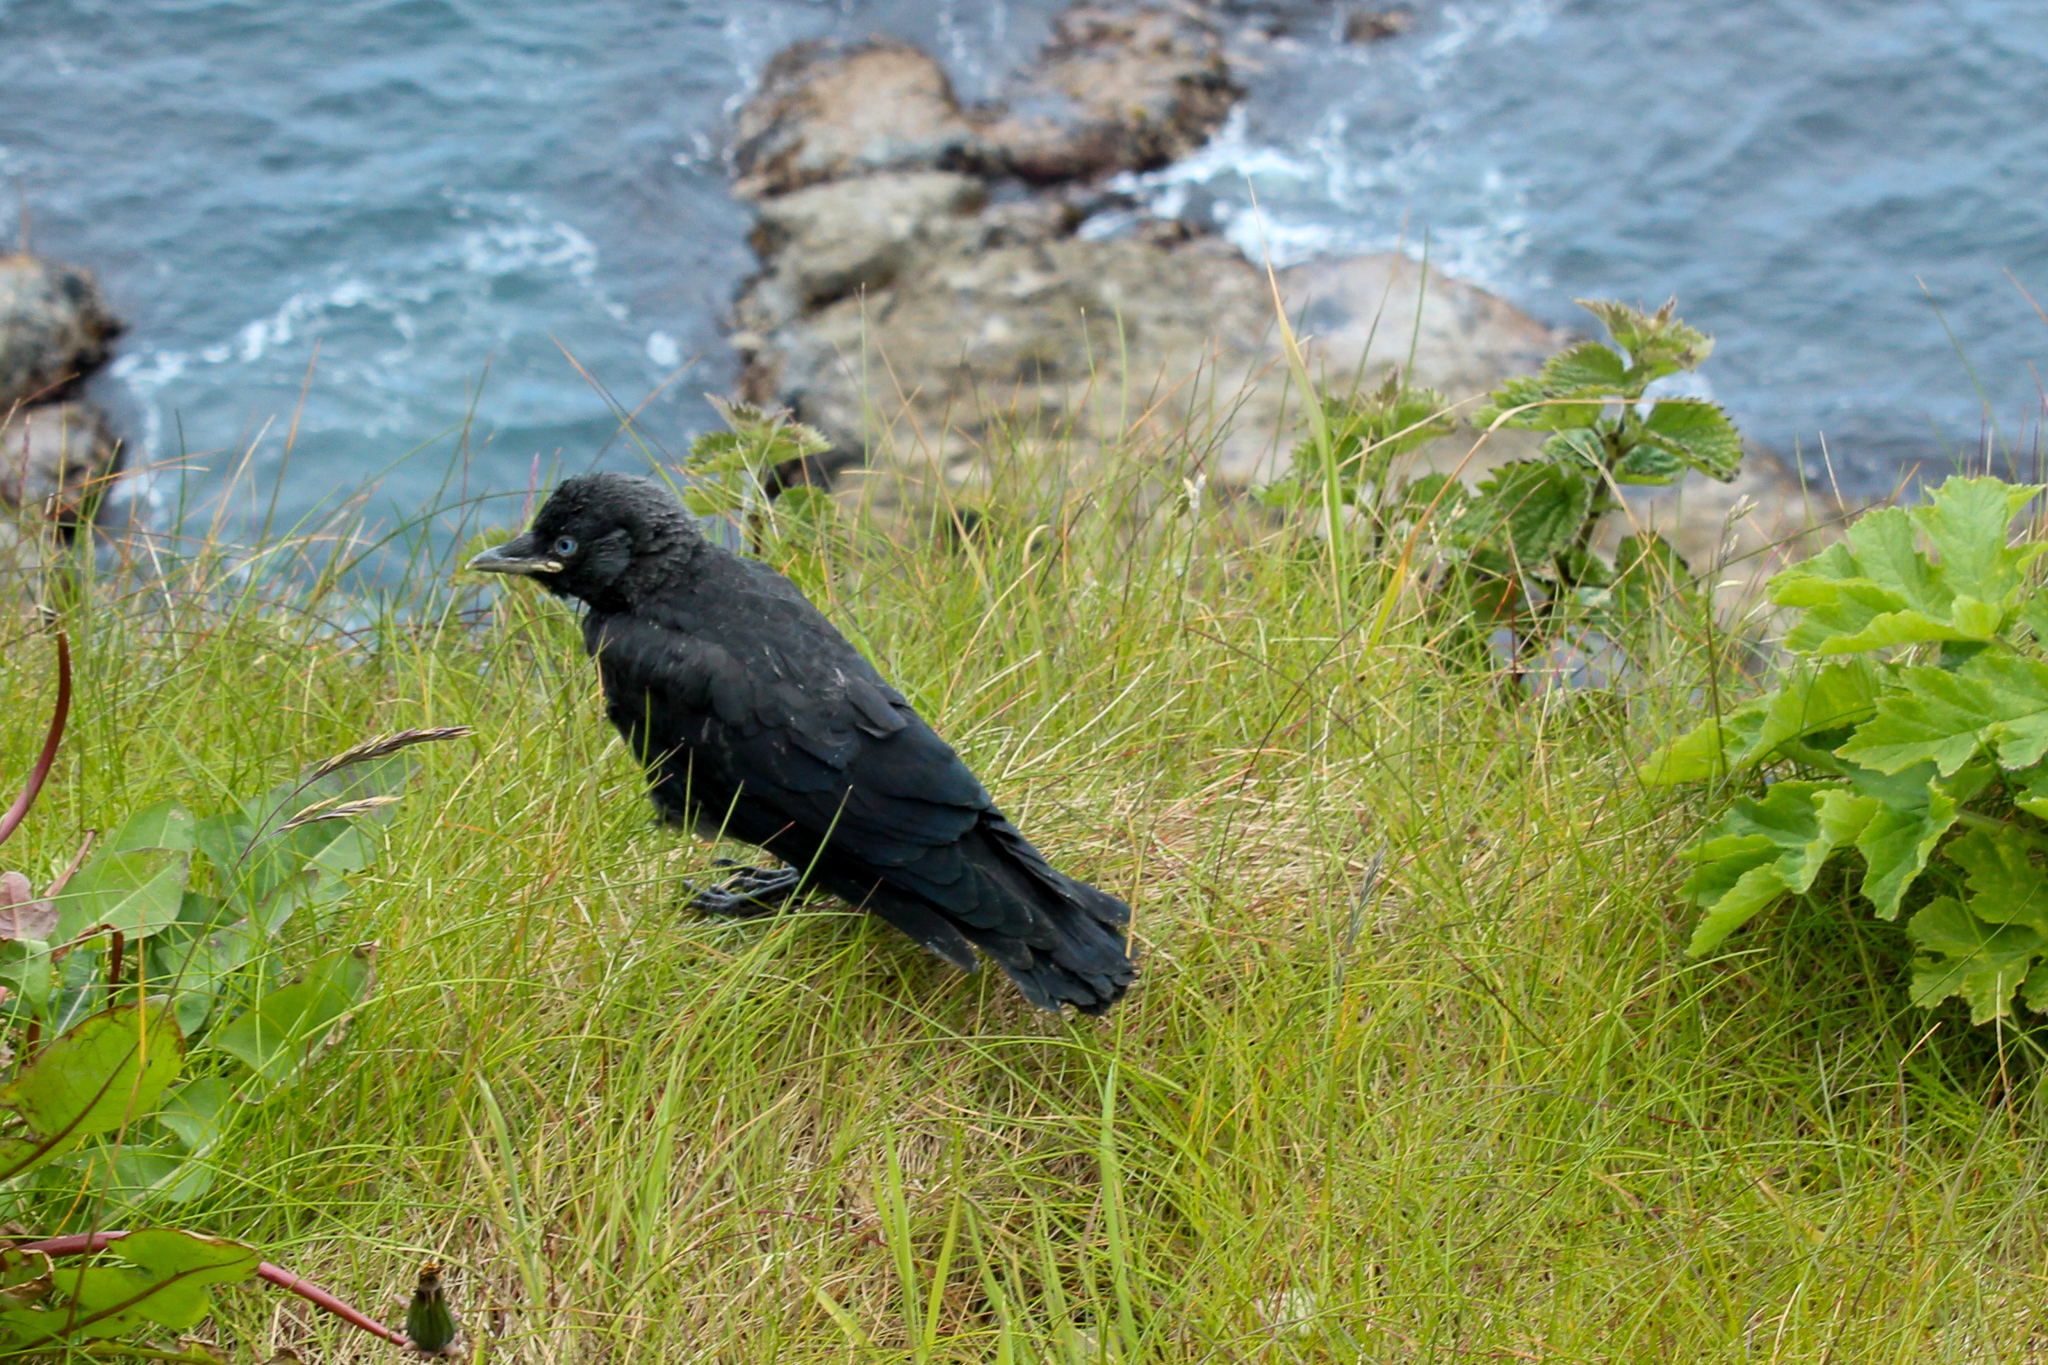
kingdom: Animalia
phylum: Chordata
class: Aves
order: Passeriformes
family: Corvidae
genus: Coloeus
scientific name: Coloeus monedula
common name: Western jackdaw
